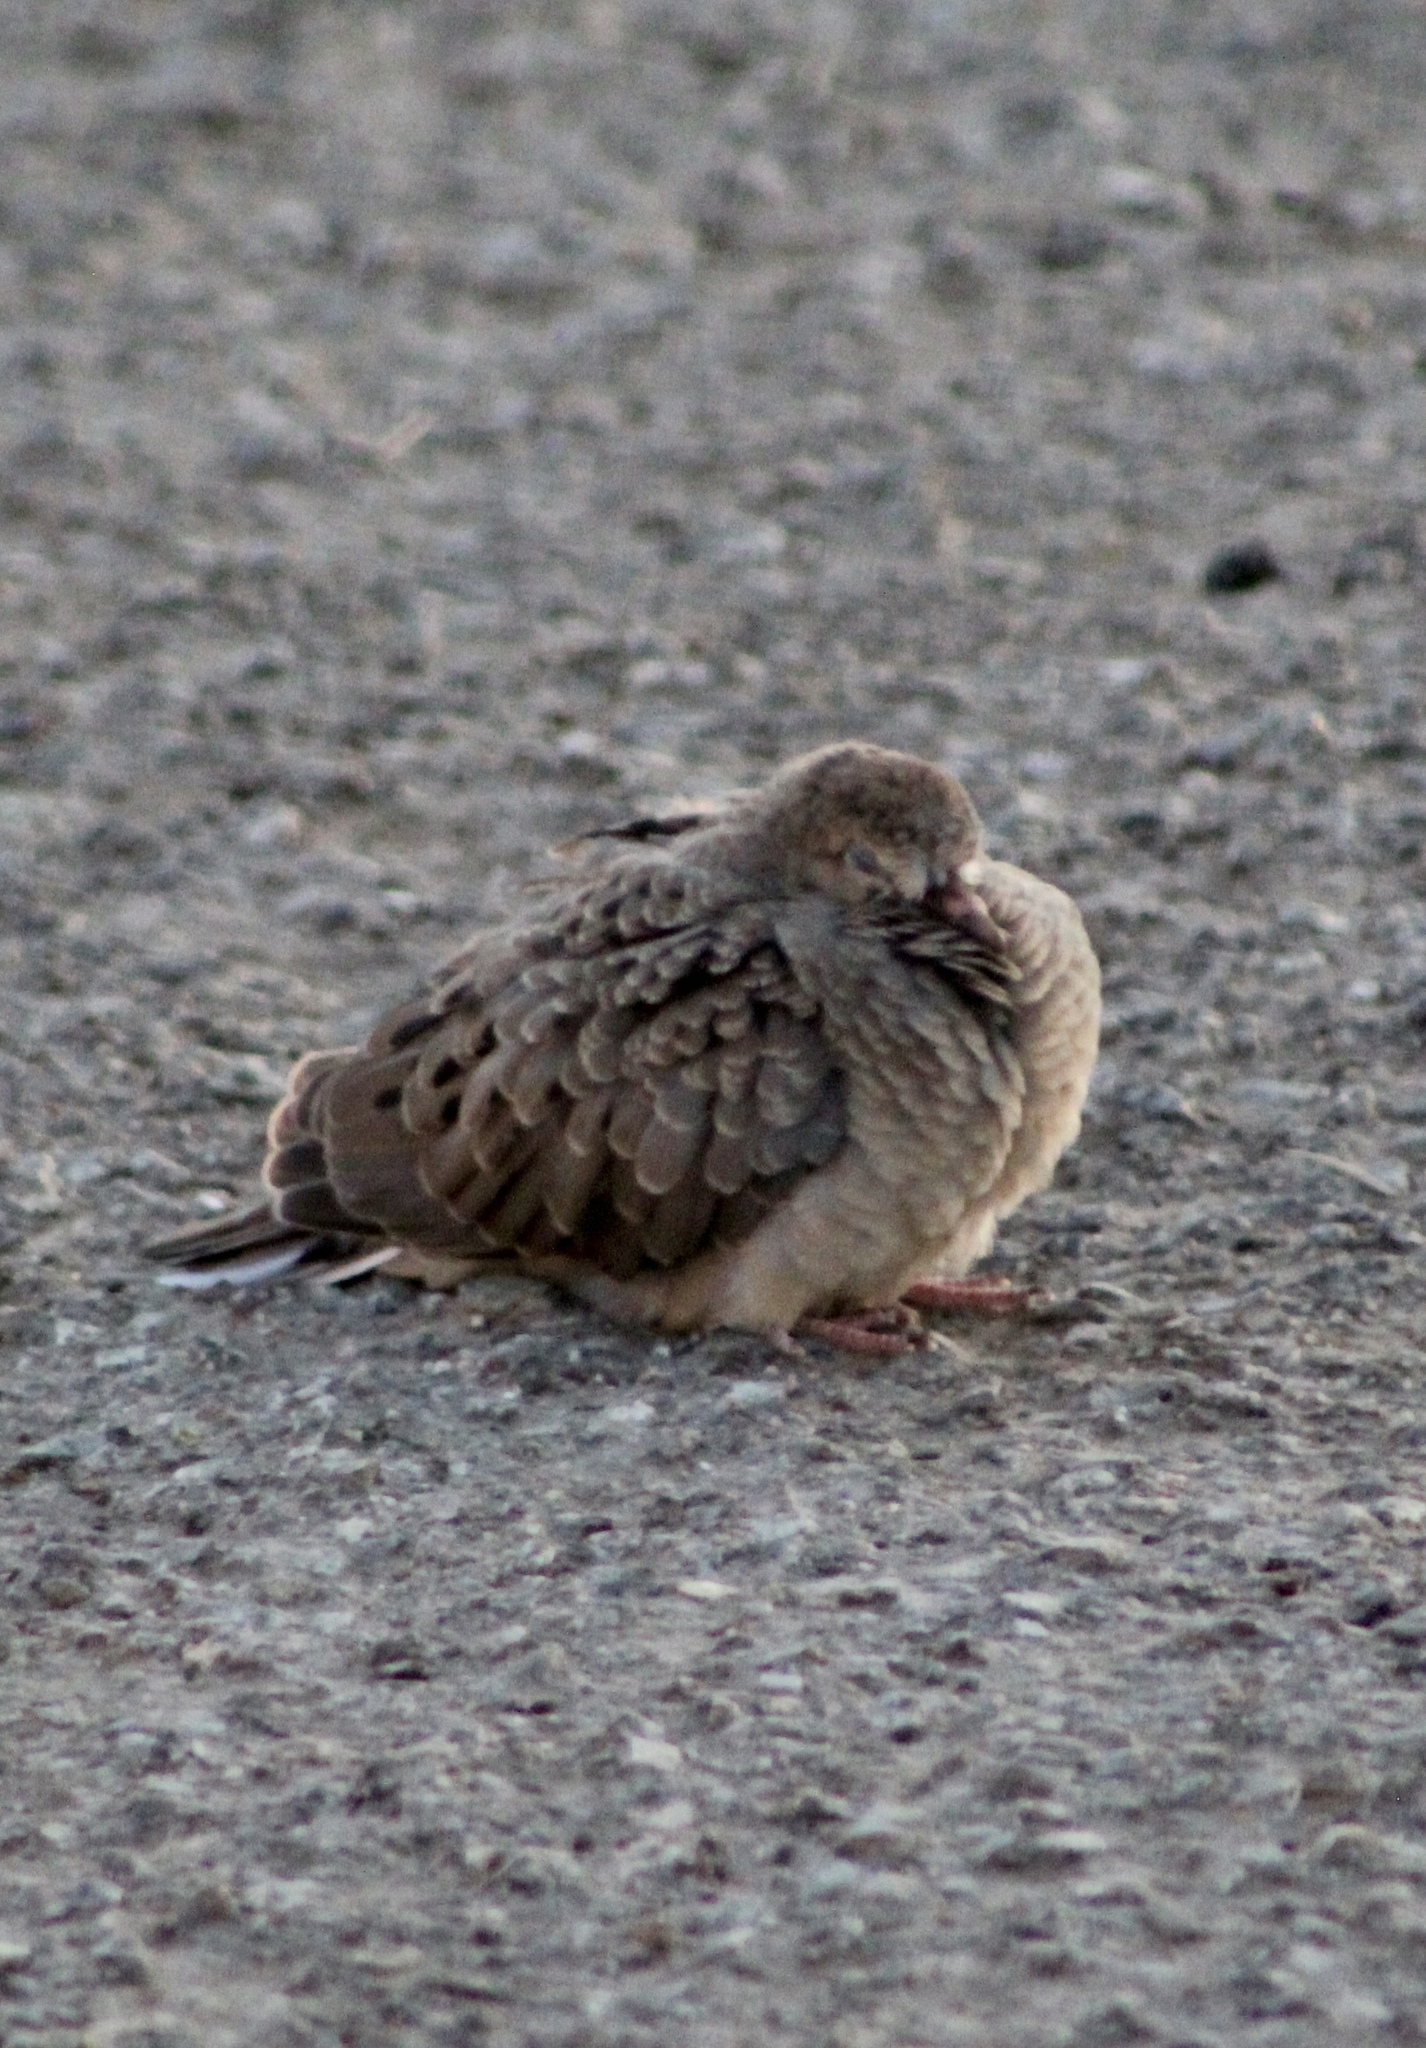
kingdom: Animalia
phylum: Chordata
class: Aves
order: Columbiformes
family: Columbidae
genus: Zenaida
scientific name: Zenaida macroura
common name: Mourning dove
